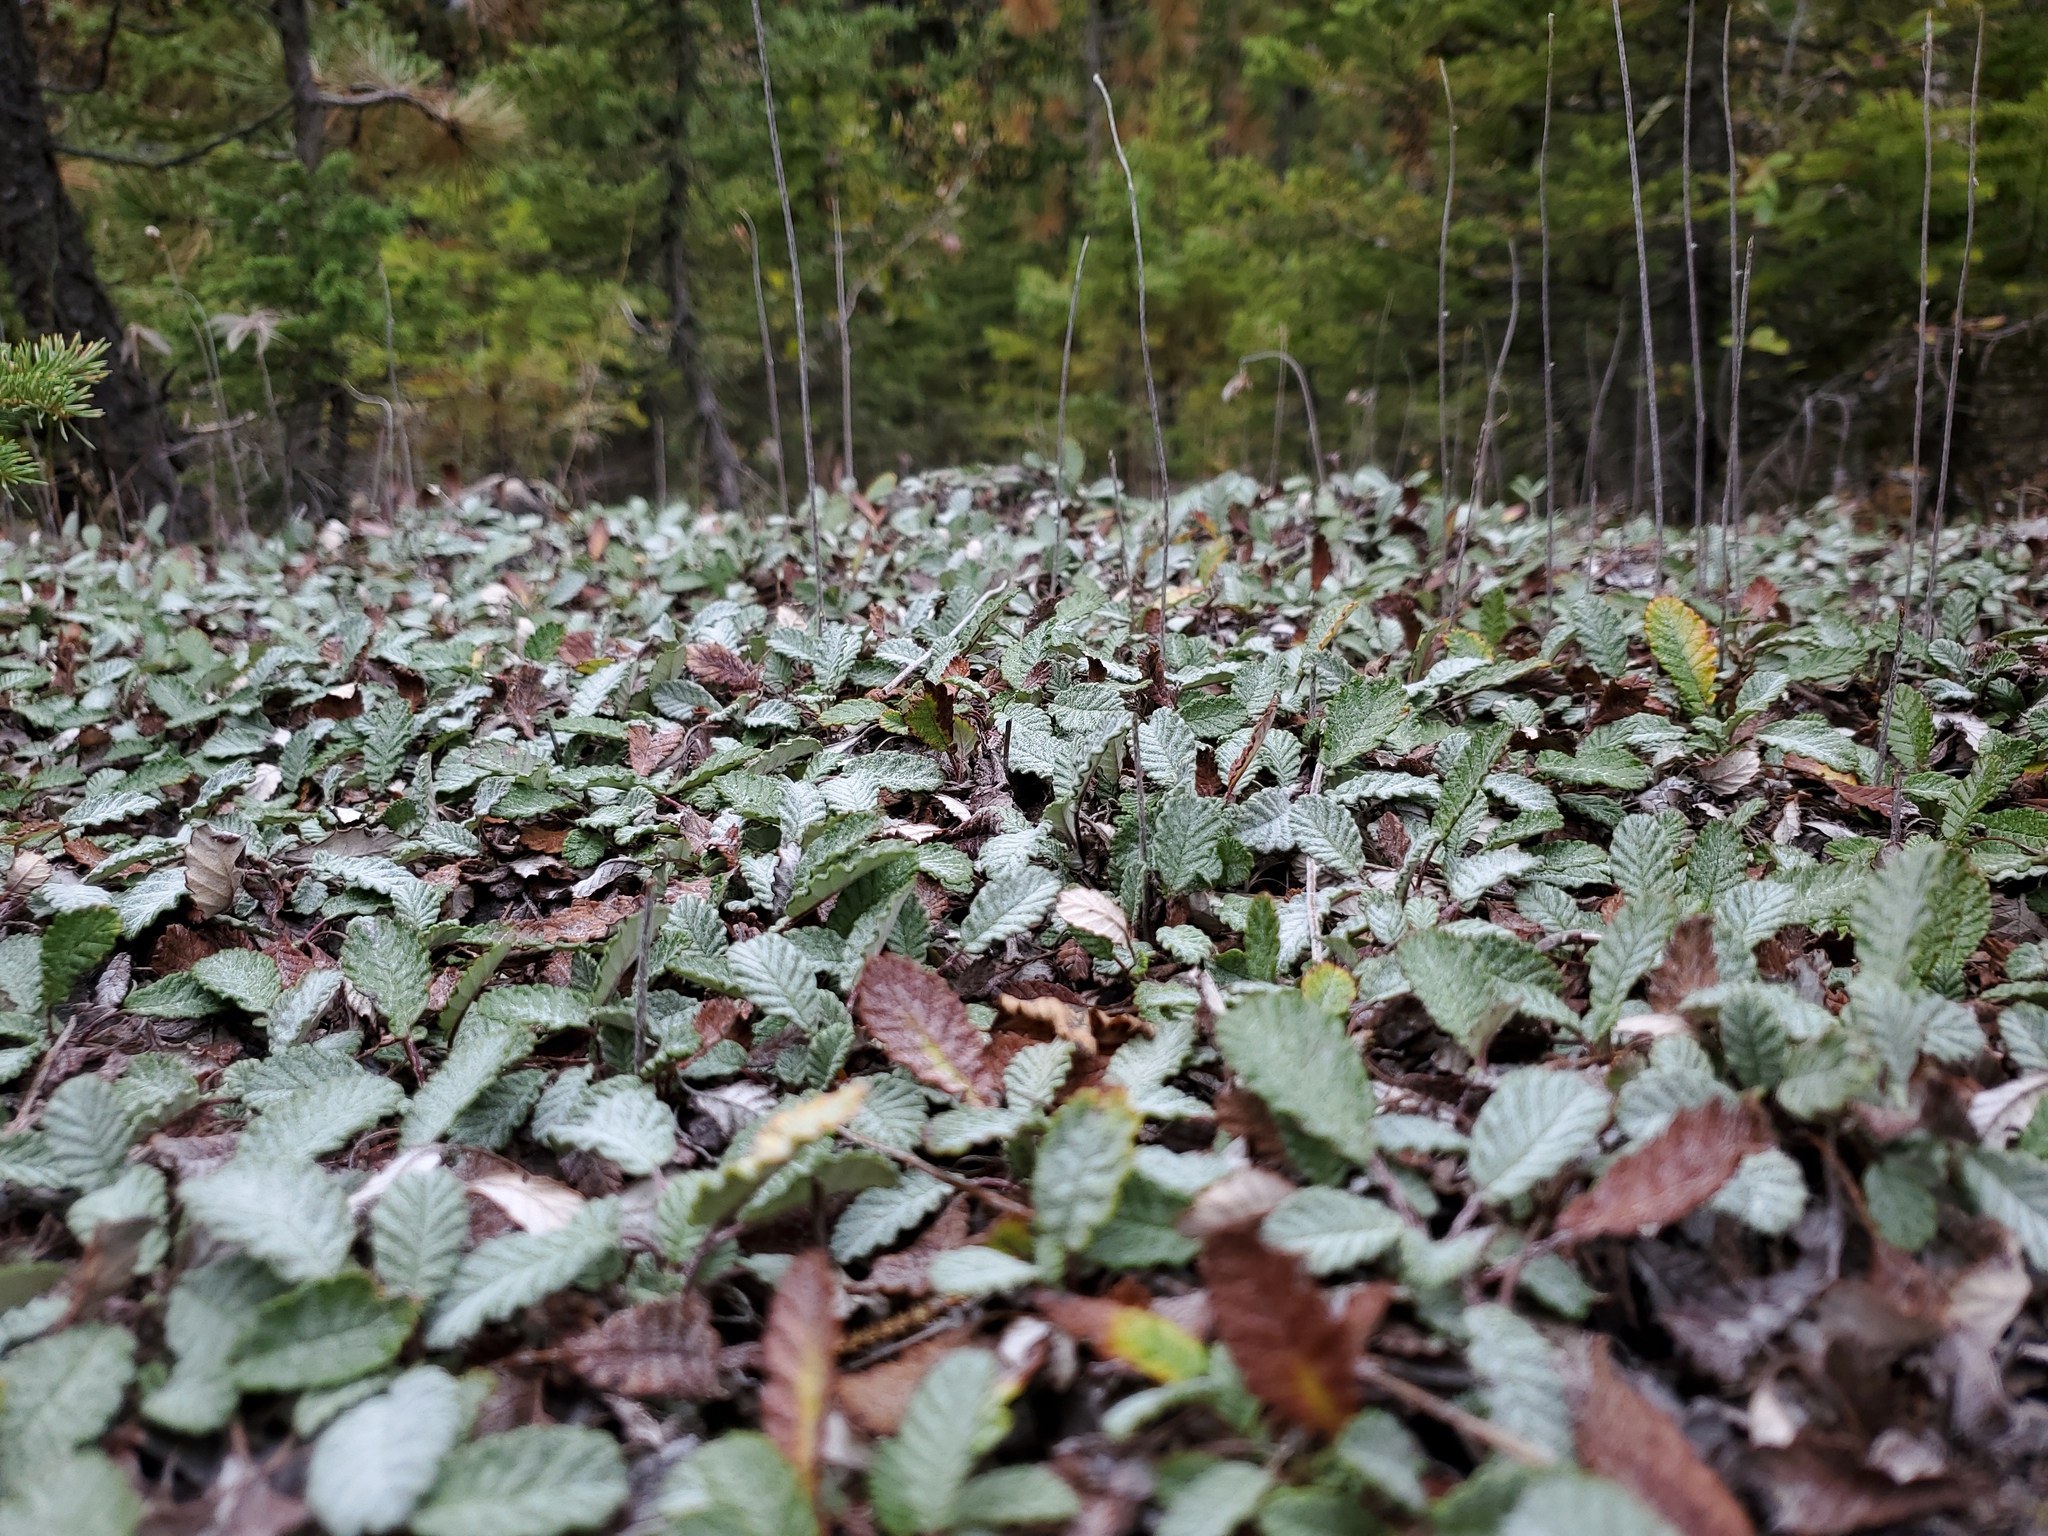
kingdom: Plantae
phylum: Tracheophyta
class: Magnoliopsida
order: Rosales
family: Rosaceae
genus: Dryas
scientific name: Dryas drummondii
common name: Drummond's dryad
